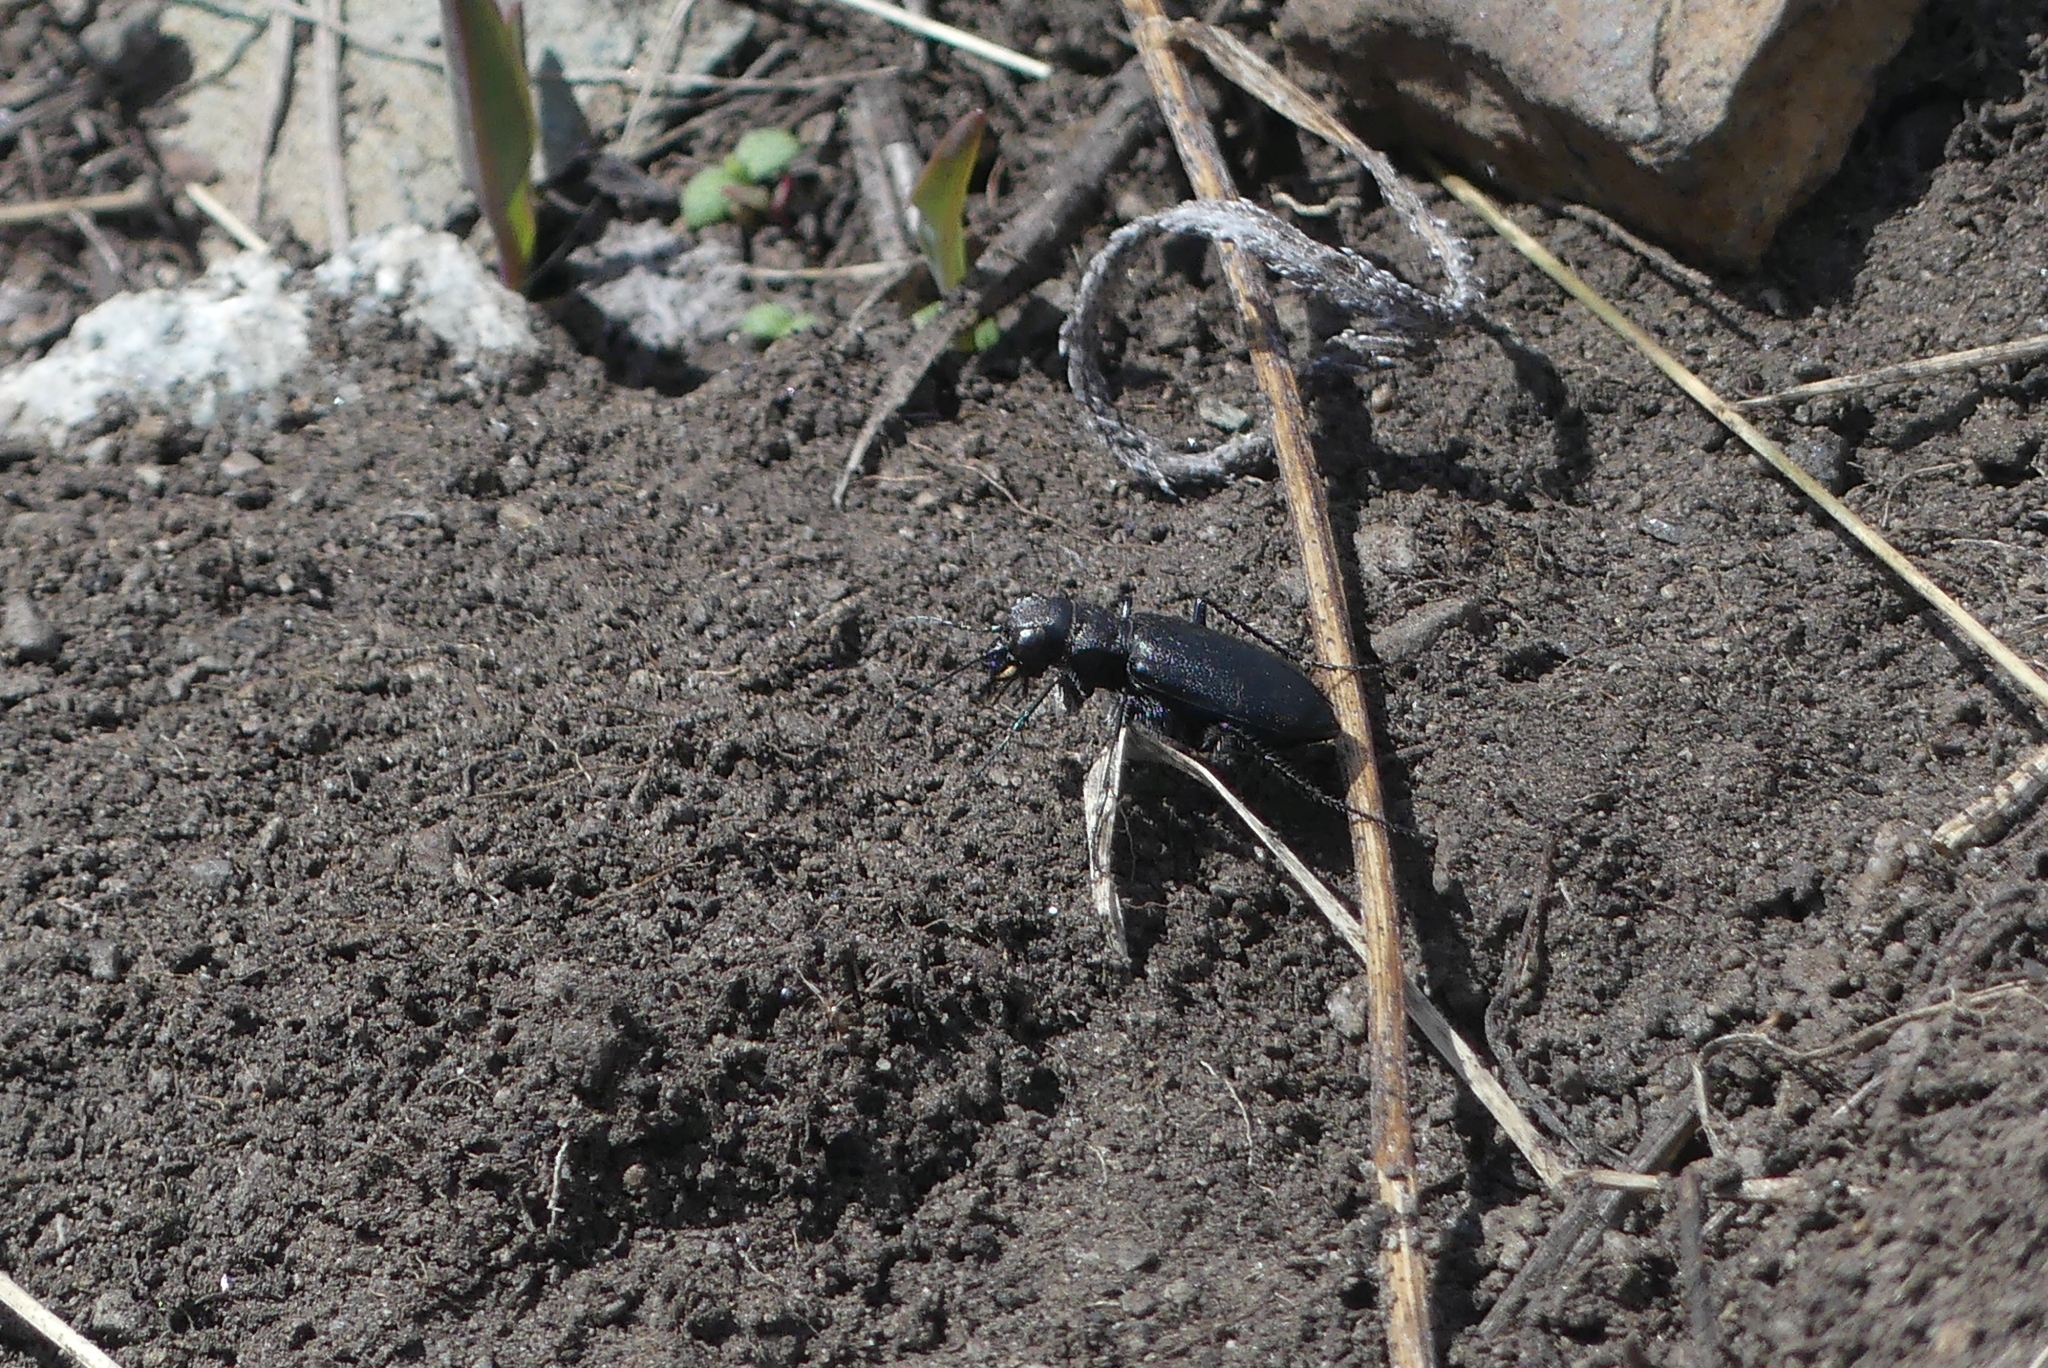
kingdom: Animalia
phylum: Arthropoda
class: Insecta
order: Coleoptera
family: Carabidae
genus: Cicindela
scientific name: Cicindela longilabris
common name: Boreal long-lipped tiger beetle
